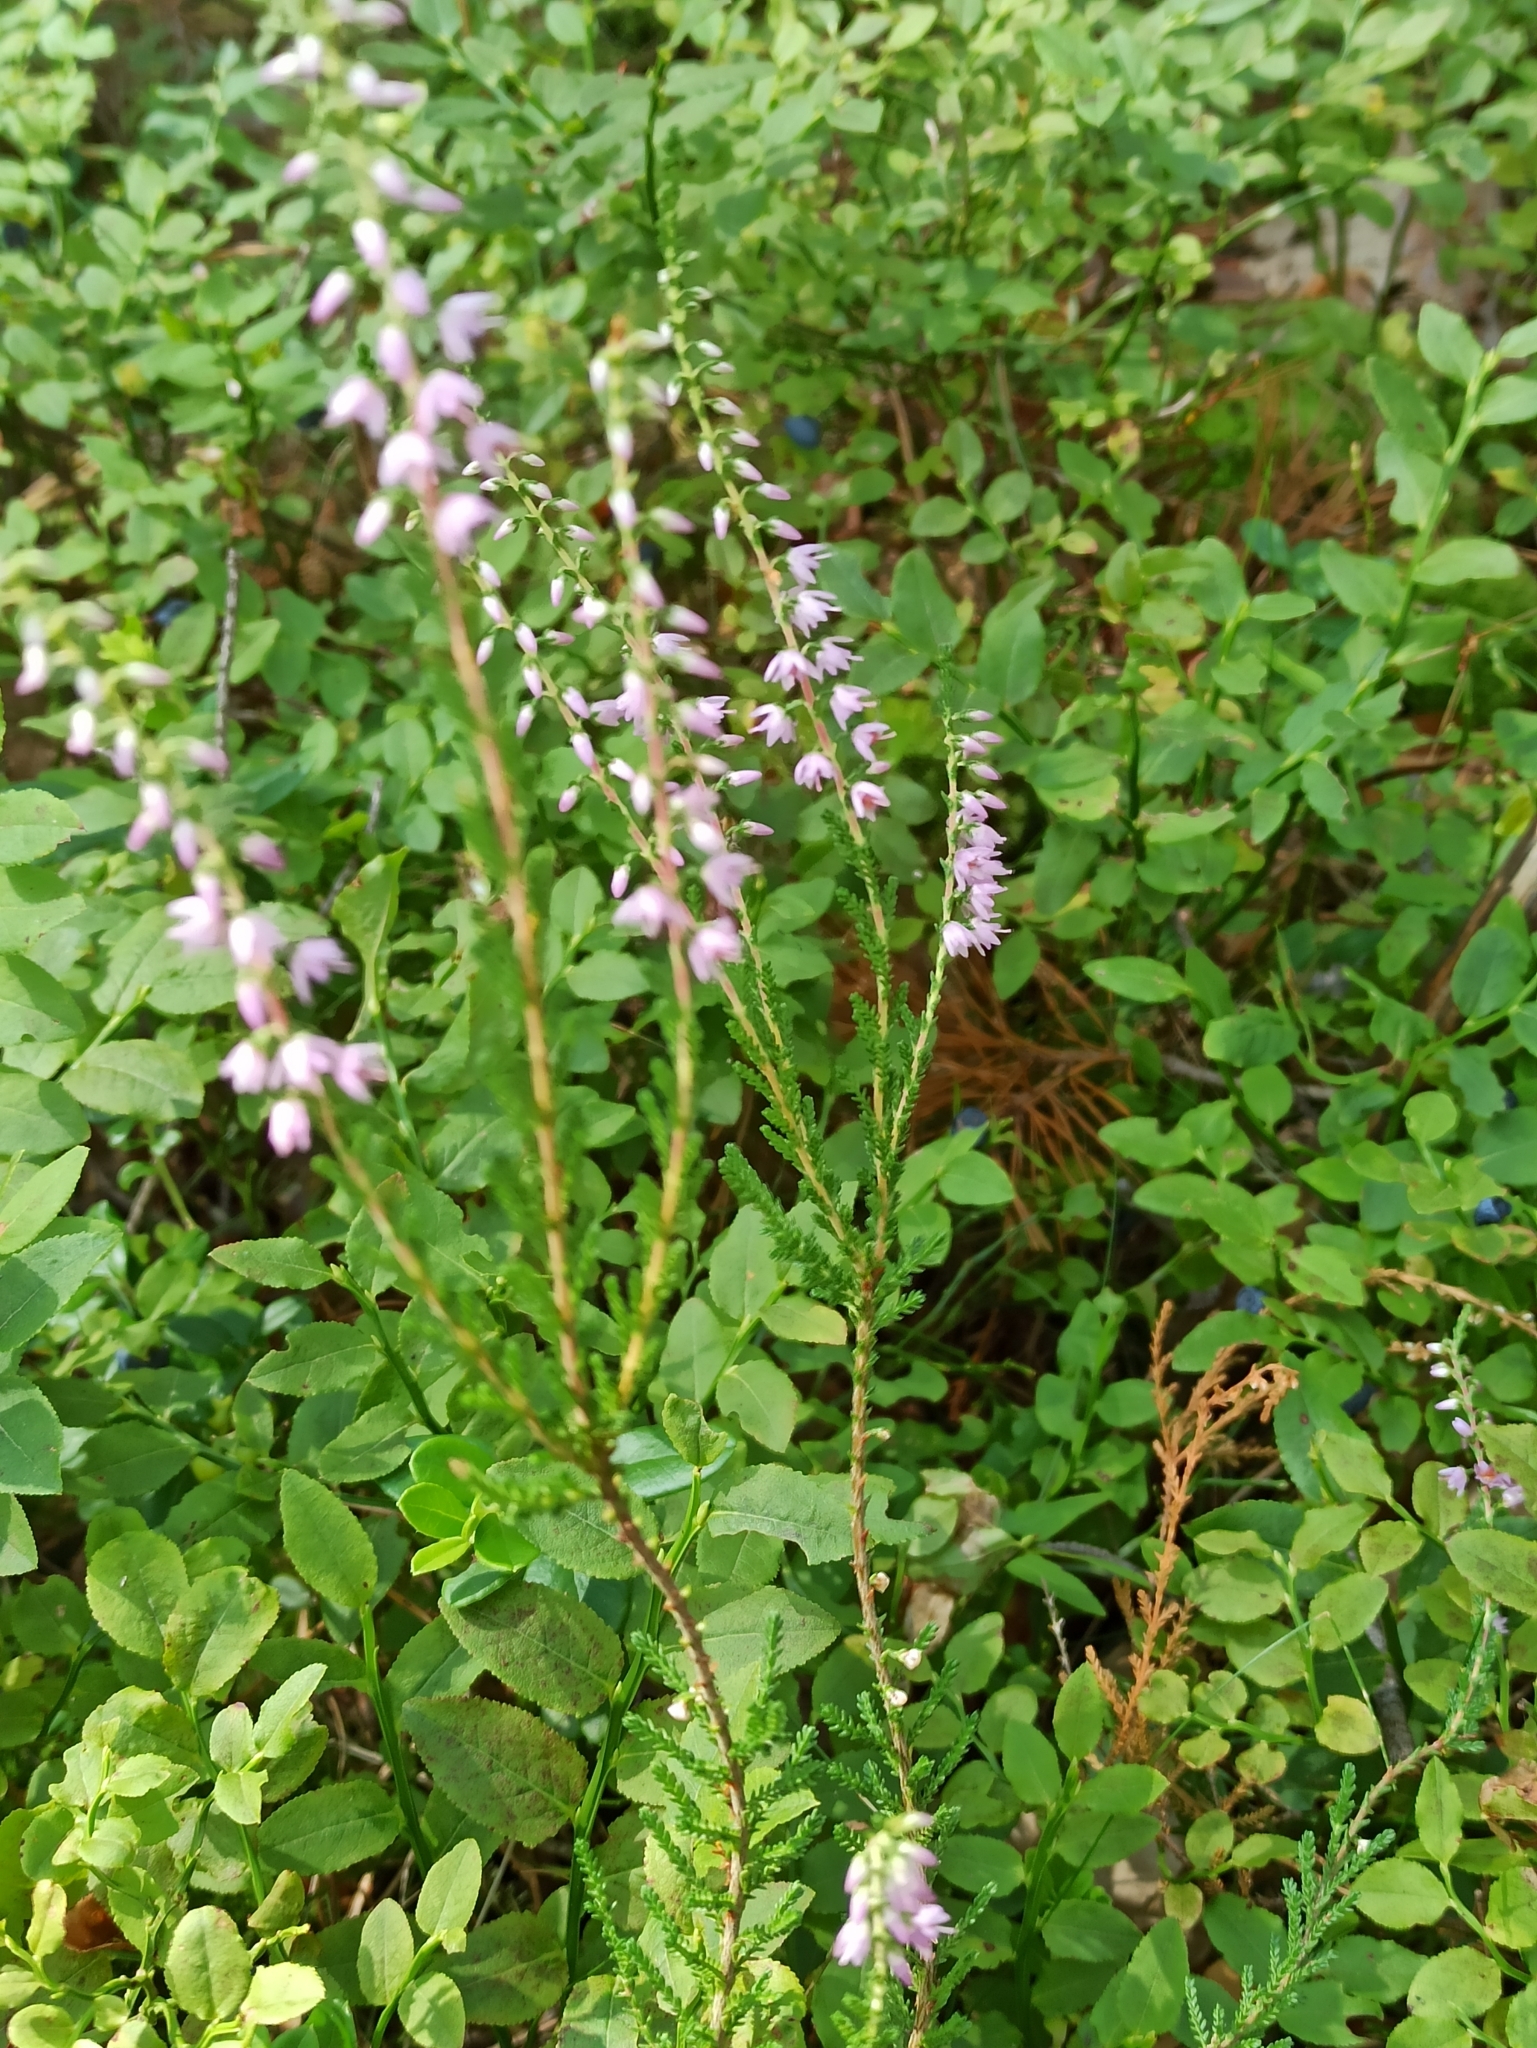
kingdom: Plantae
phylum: Tracheophyta
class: Magnoliopsida
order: Ericales
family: Ericaceae
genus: Calluna
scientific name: Calluna vulgaris
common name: Heather
